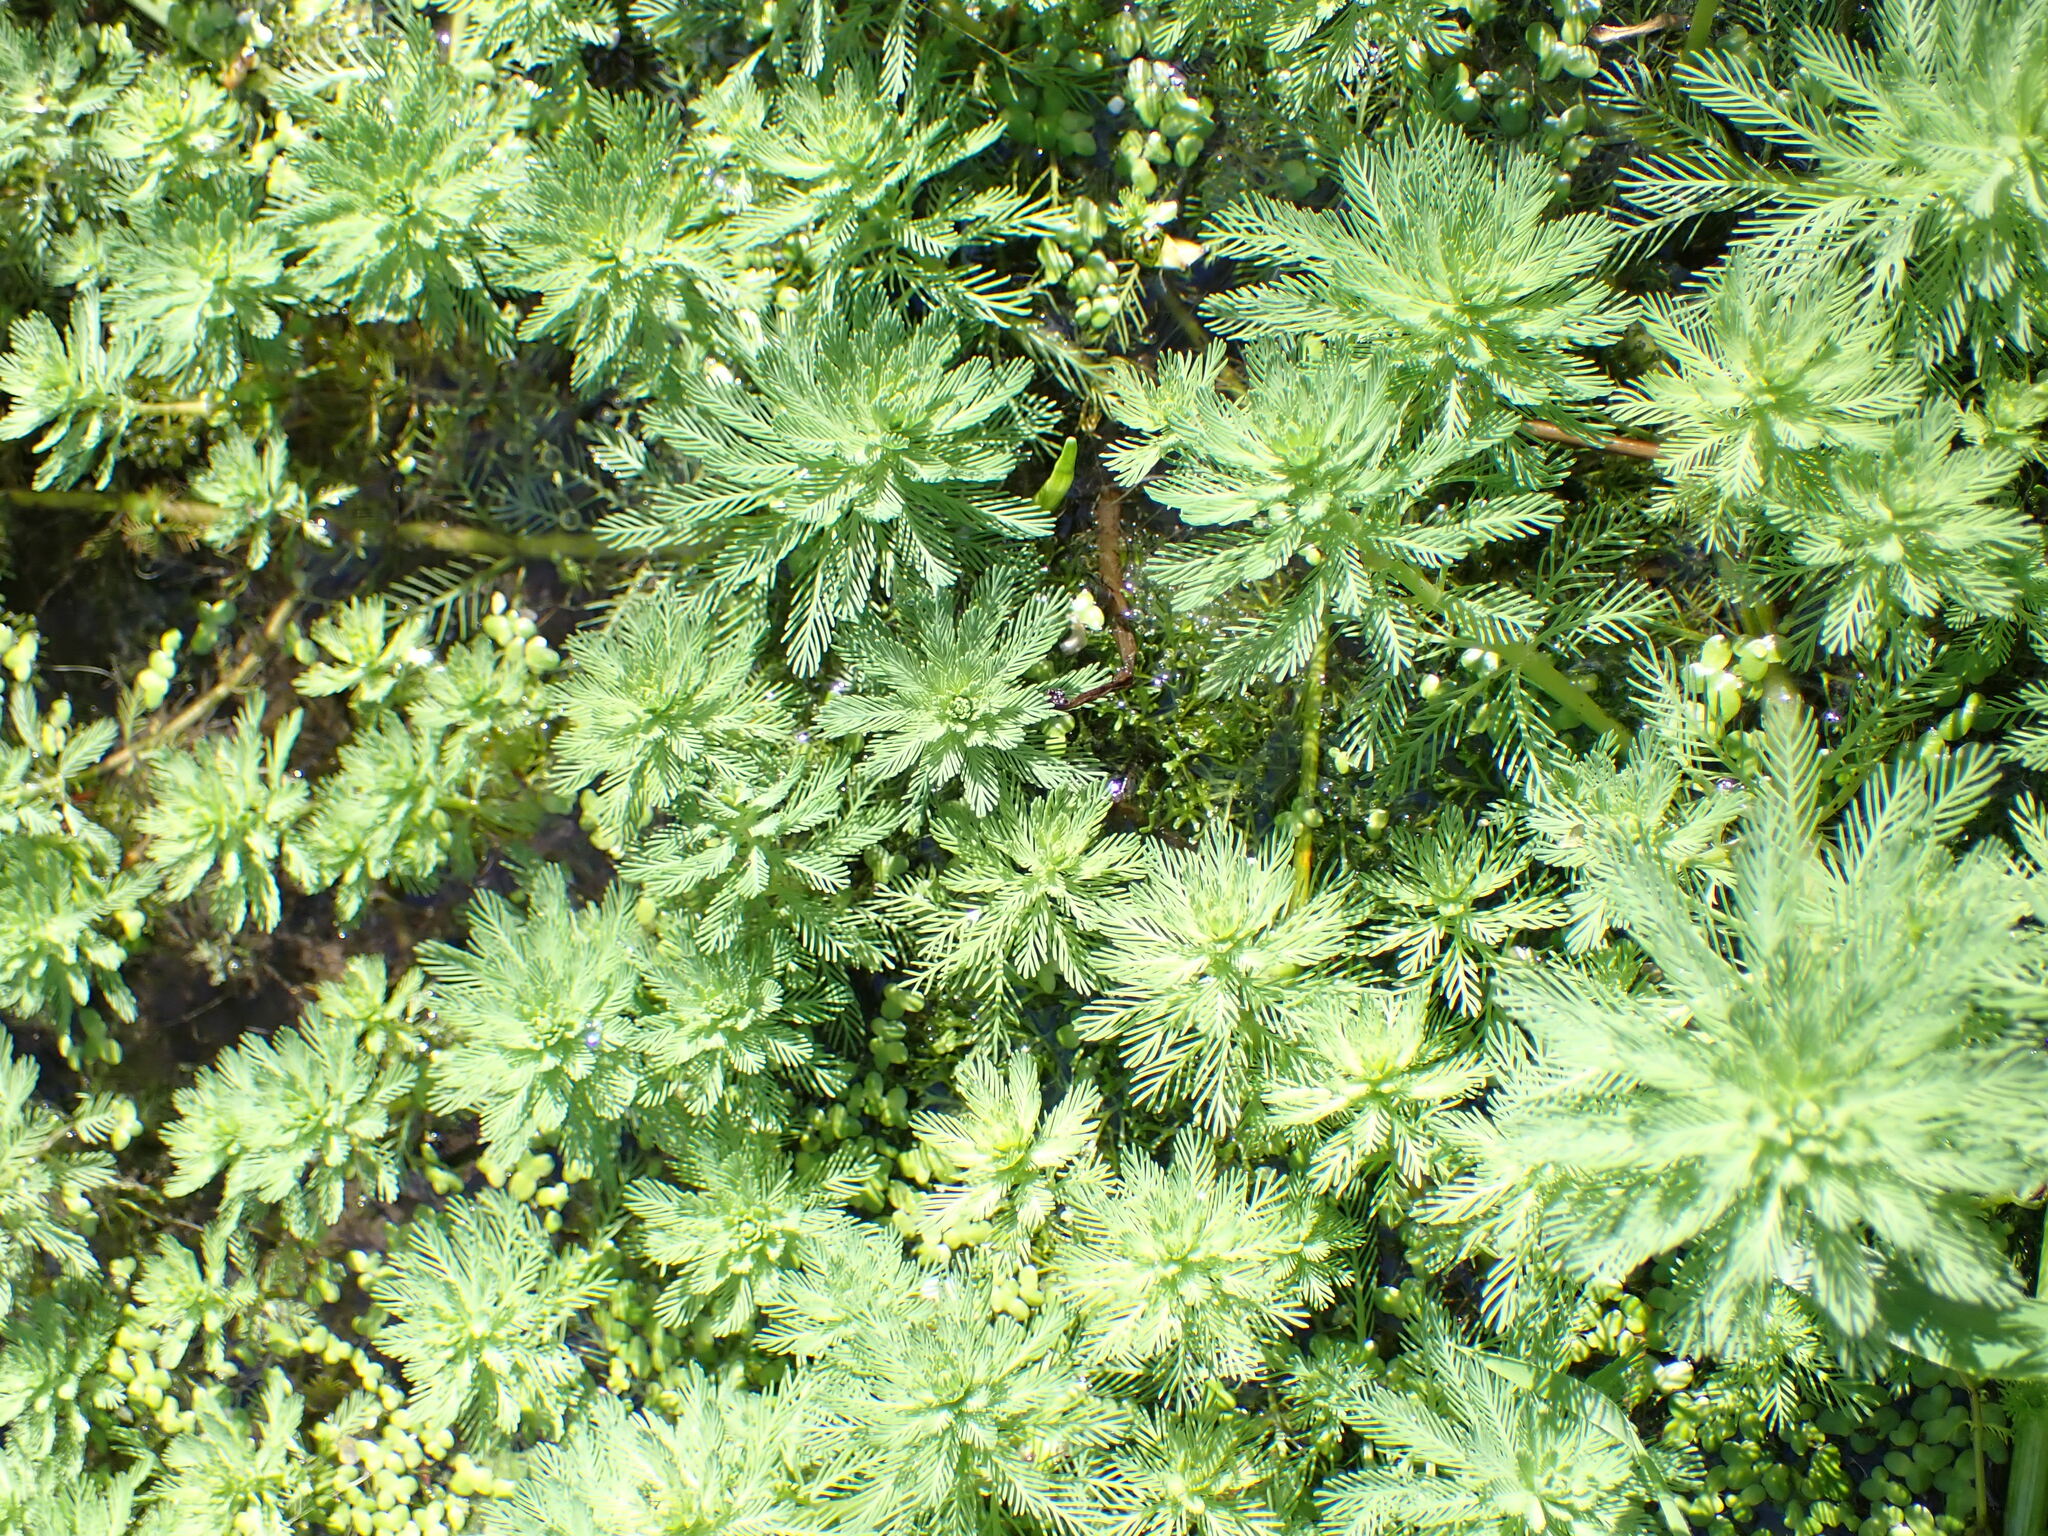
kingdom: Plantae
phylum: Tracheophyta
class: Magnoliopsida
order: Saxifragales
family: Haloragaceae
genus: Myriophyllum
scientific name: Myriophyllum aquaticum
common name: Parrot's feather
